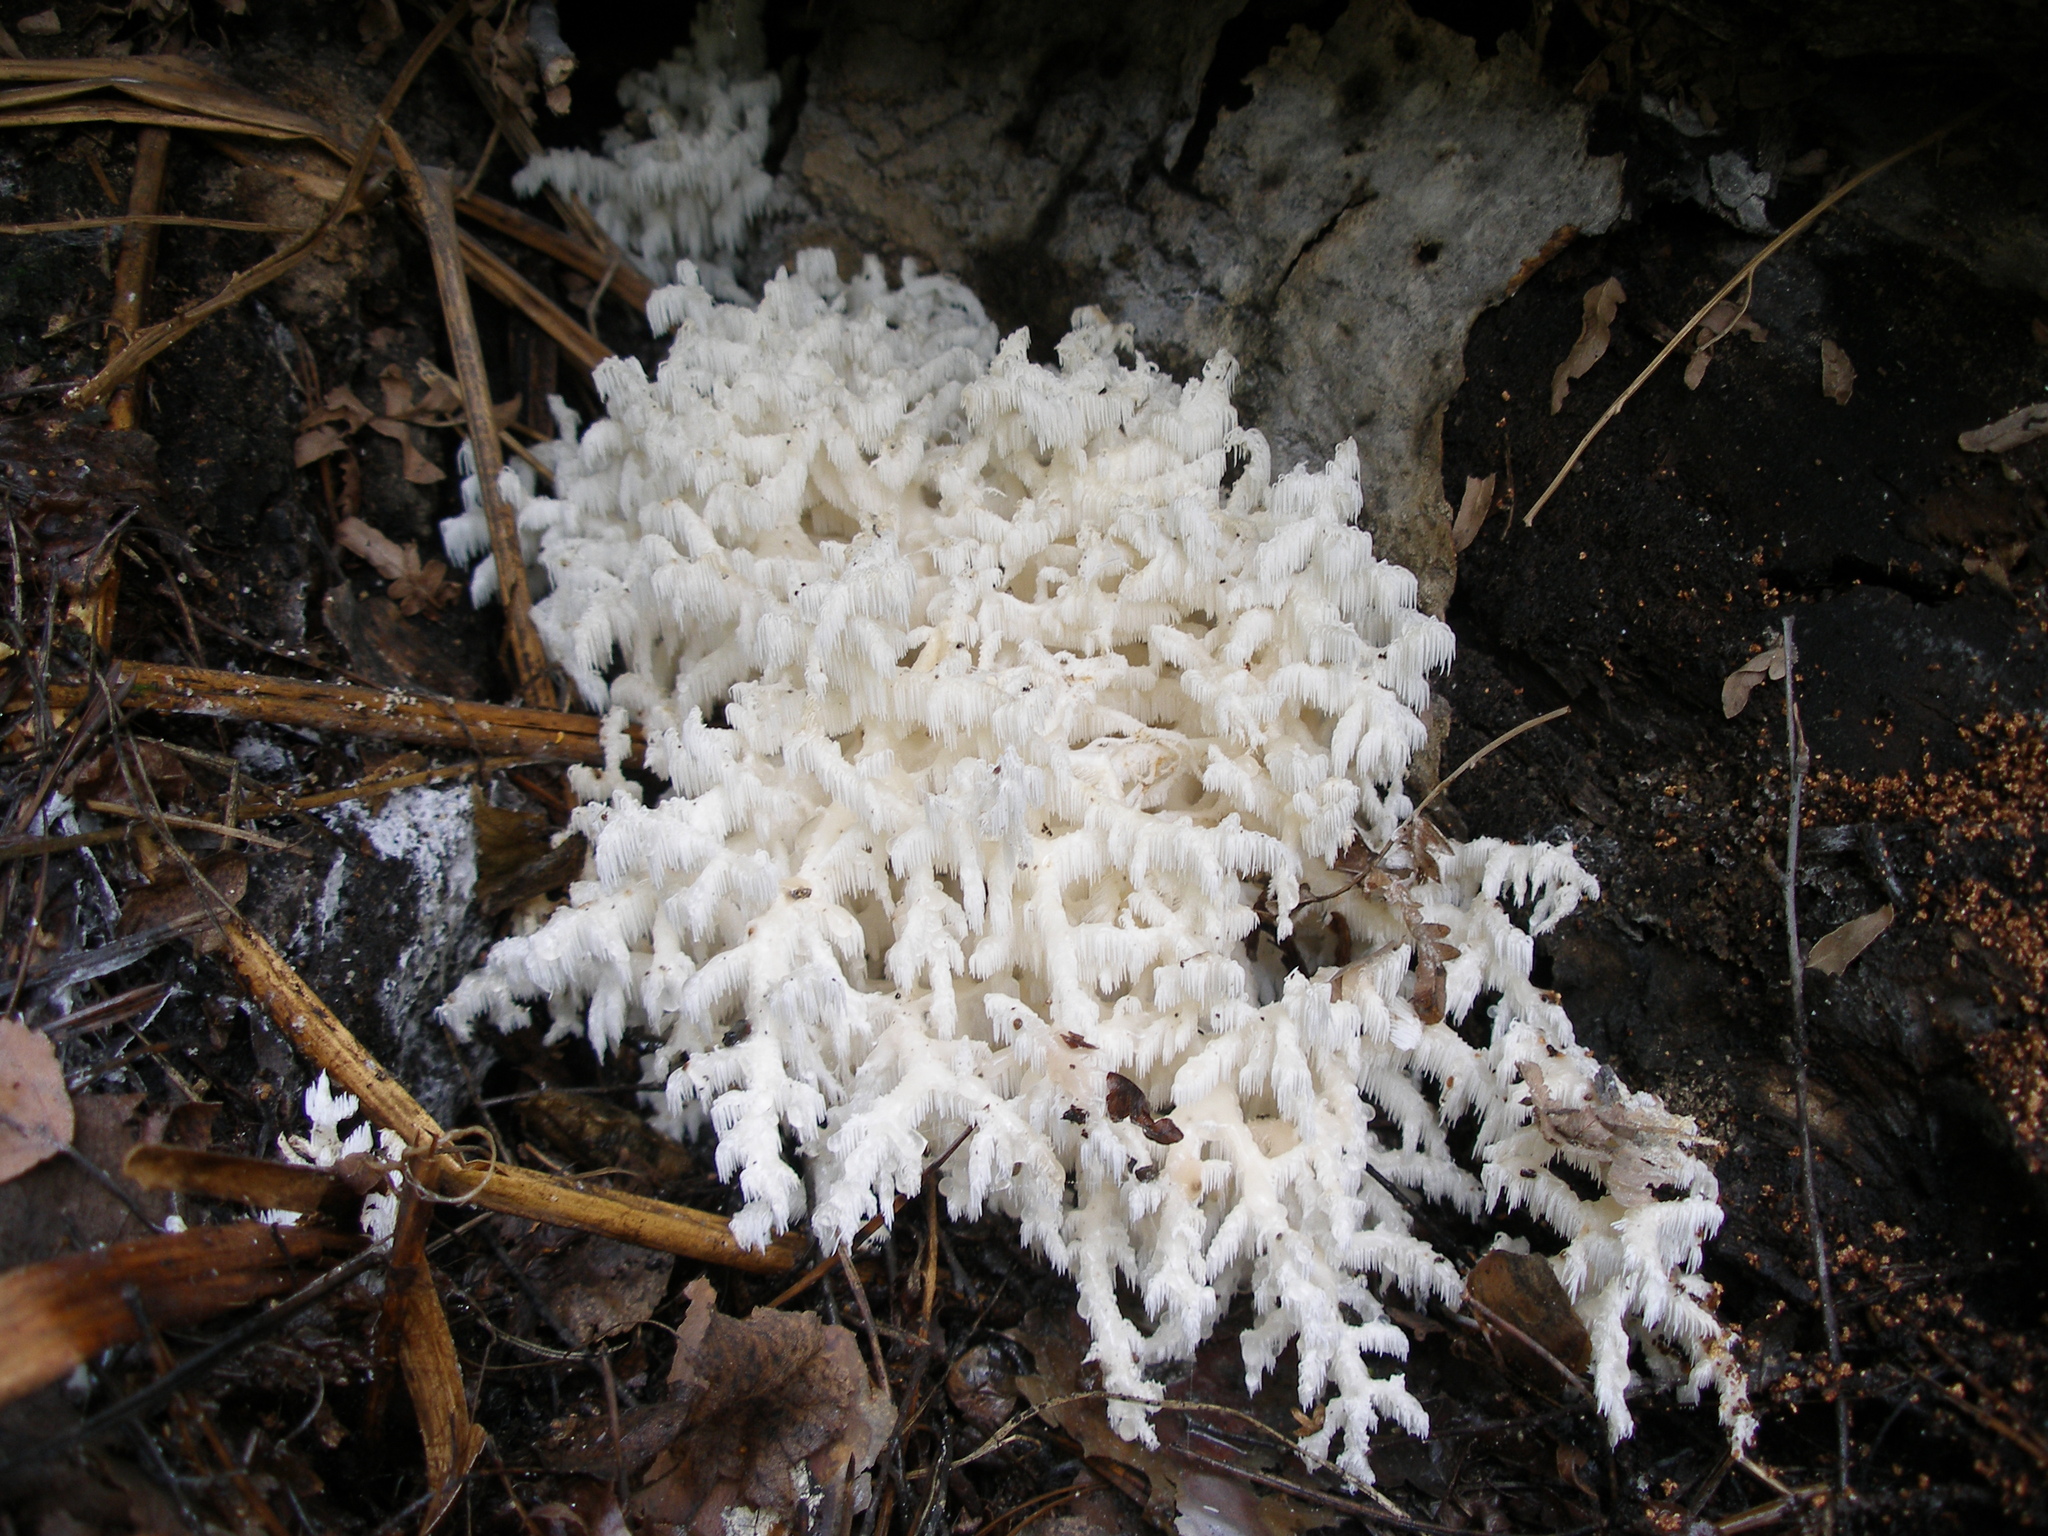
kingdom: Fungi
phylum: Basidiomycota
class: Agaricomycetes
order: Russulales
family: Hericiaceae
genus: Hericium
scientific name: Hericium coralloides
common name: Coral tooth
